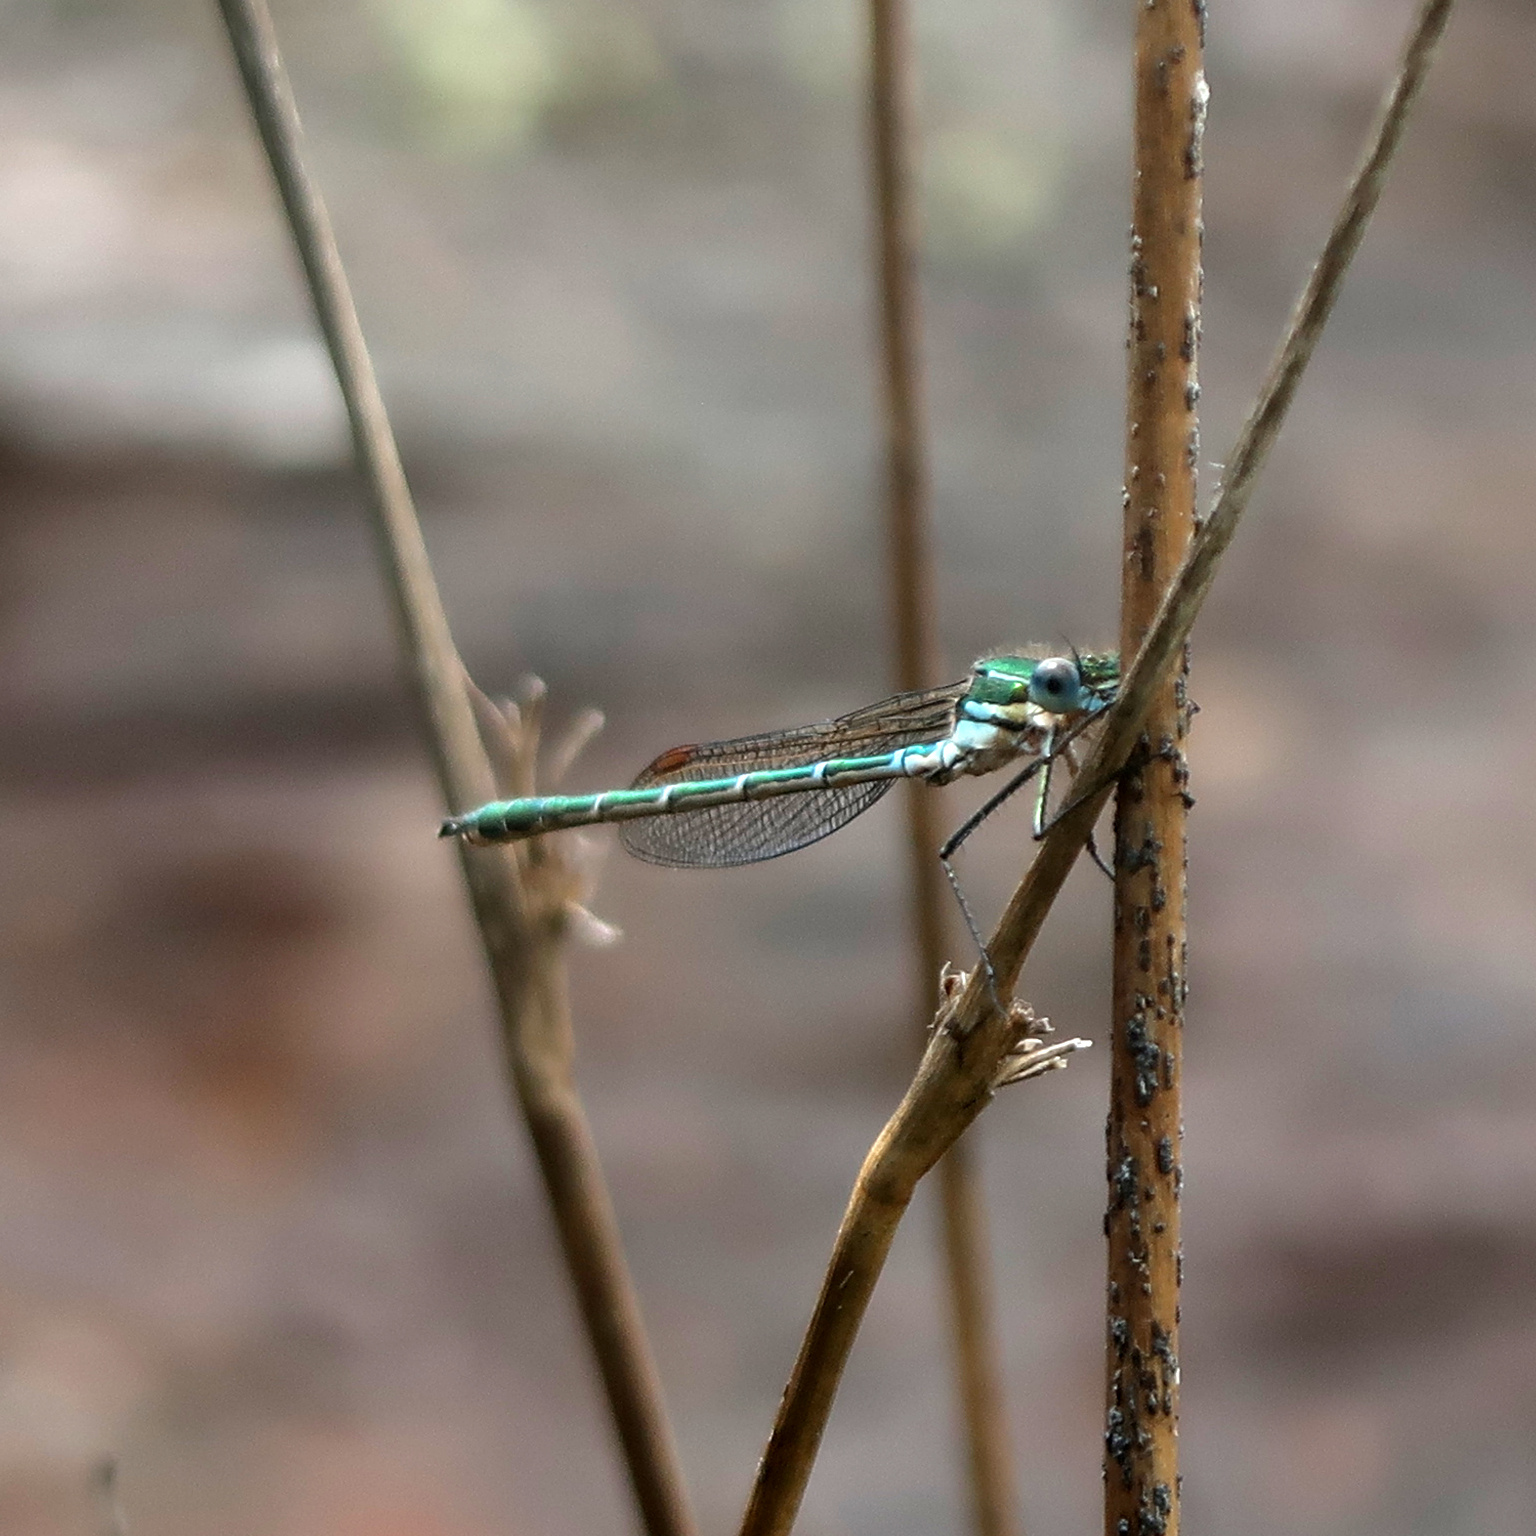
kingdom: Animalia
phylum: Arthropoda
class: Insecta
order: Odonata
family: Lestidae
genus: Austrolestes
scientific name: Austrolestes cingulatus
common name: Metallic ringtail
